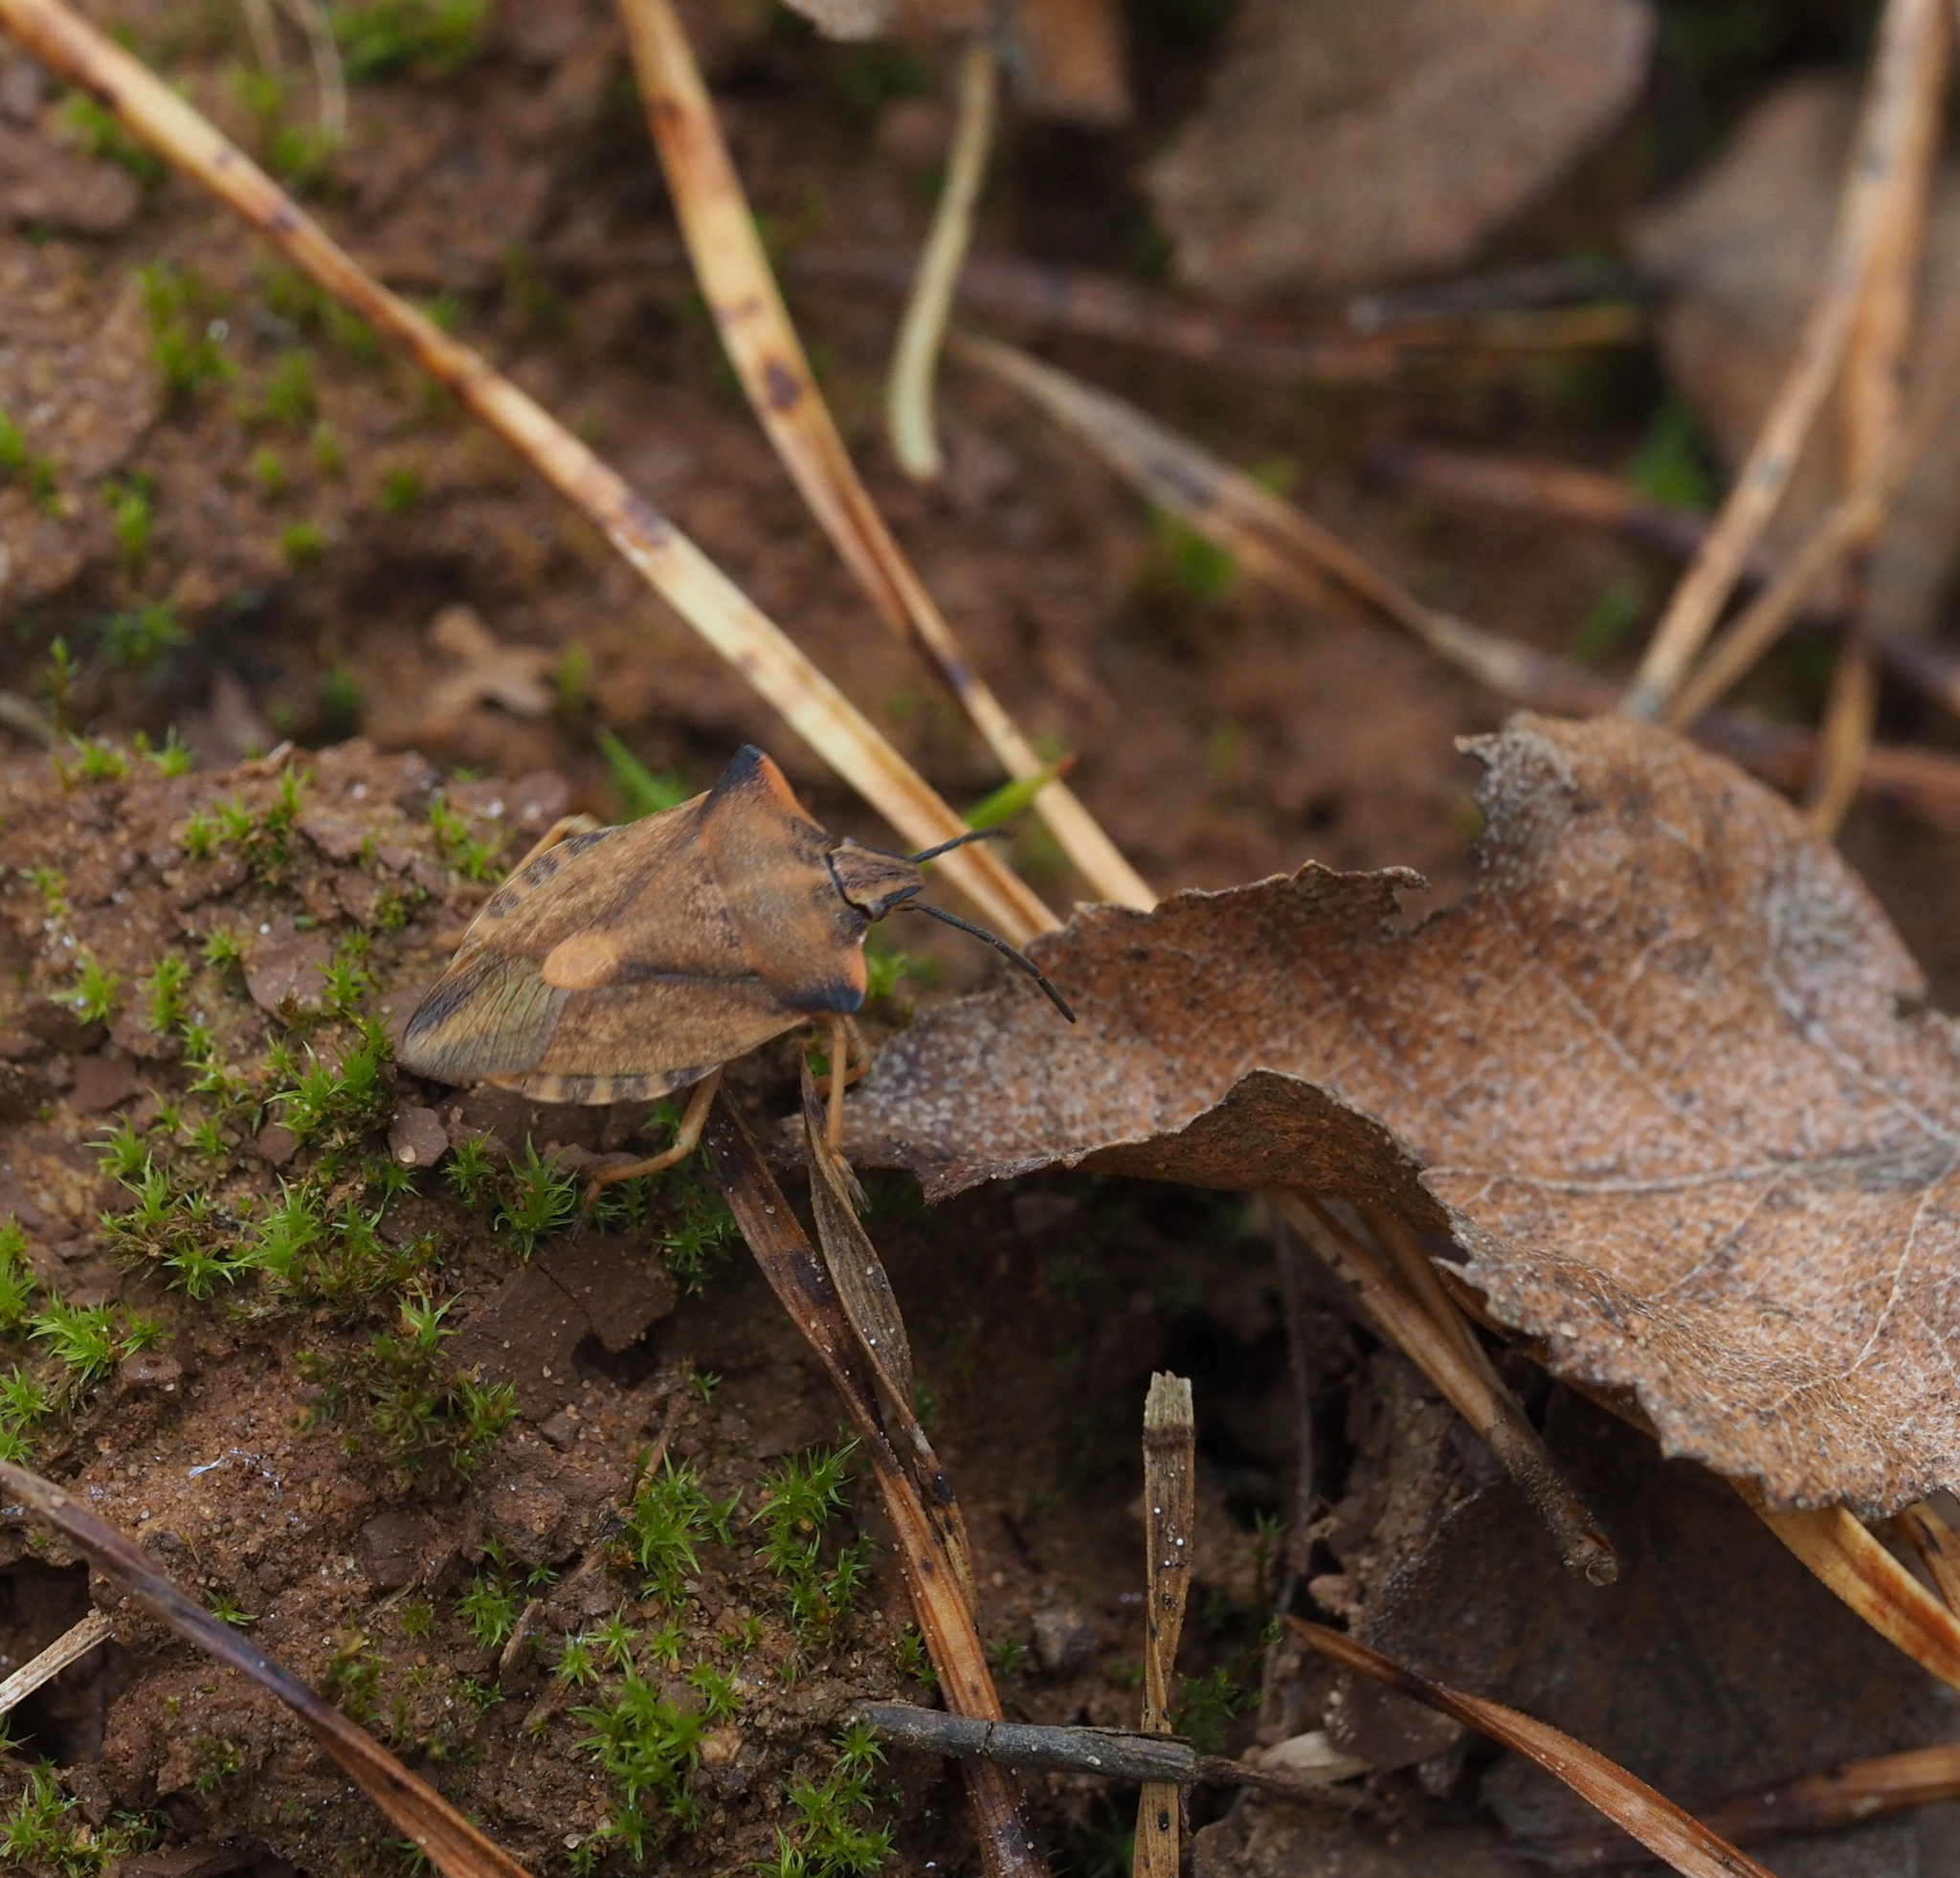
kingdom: Animalia
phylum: Arthropoda
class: Insecta
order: Hemiptera
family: Pentatomidae
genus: Carpocoris
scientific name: Carpocoris fuscispinus
